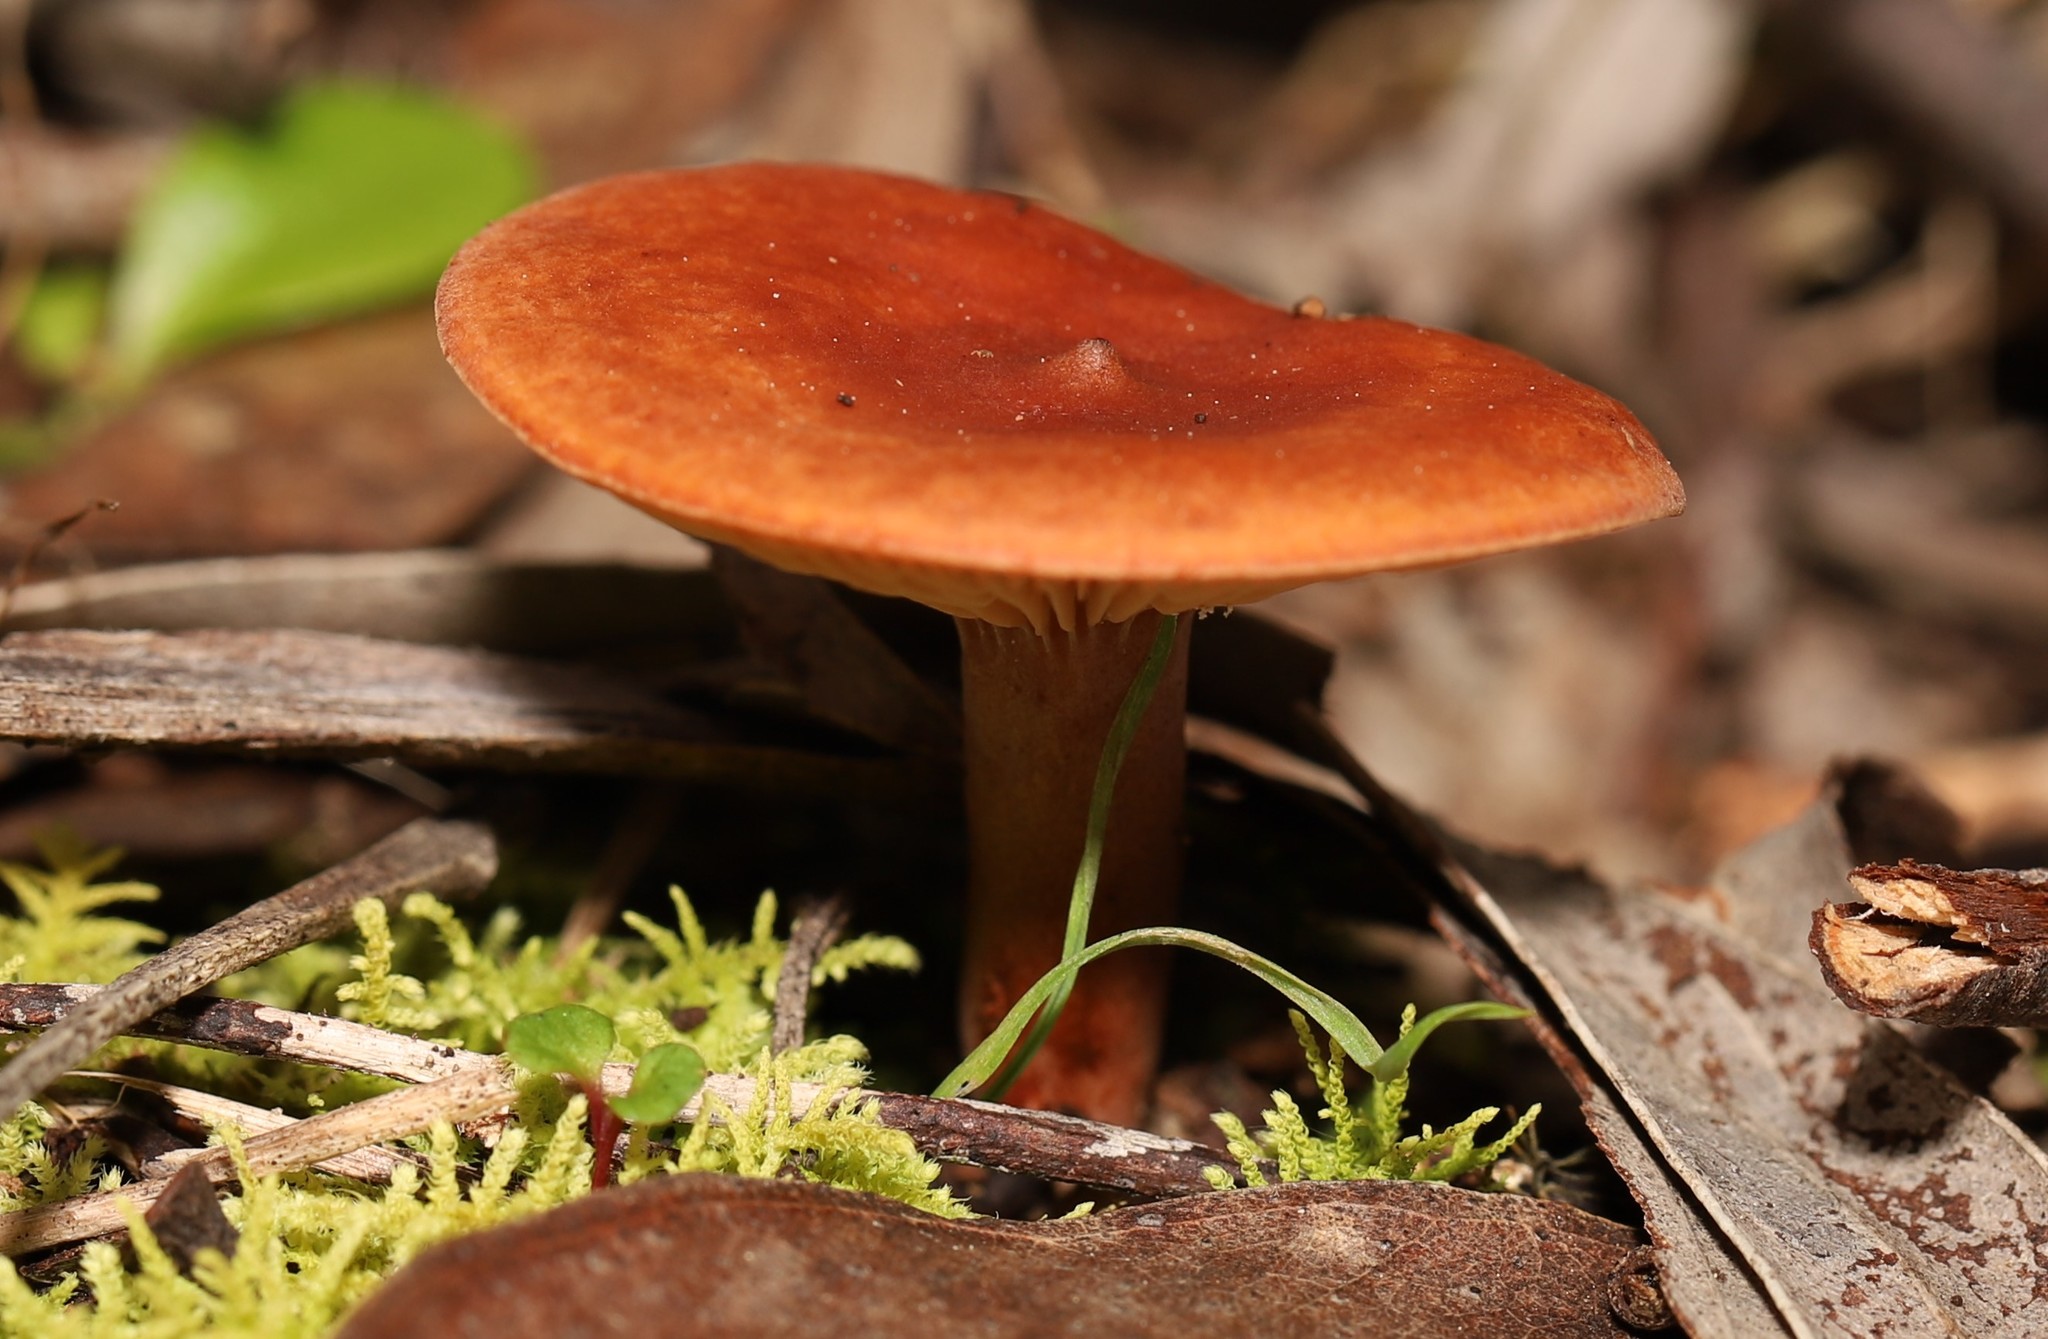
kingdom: Fungi
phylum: Basidiomycota
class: Agaricomycetes
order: Russulales
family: Russulaceae
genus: Lactarius
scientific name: Lactarius eucalypti
